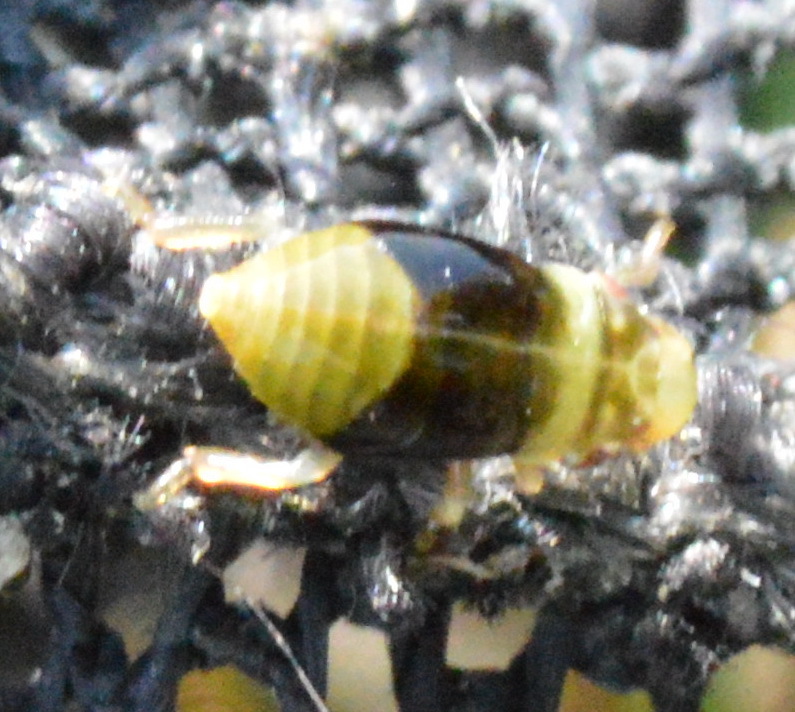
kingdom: Animalia
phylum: Arthropoda
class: Insecta
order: Hemiptera
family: Aphrophoridae
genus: Lepyronia
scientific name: Lepyronia quadrangularis
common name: Diamond-backed spittlebug
